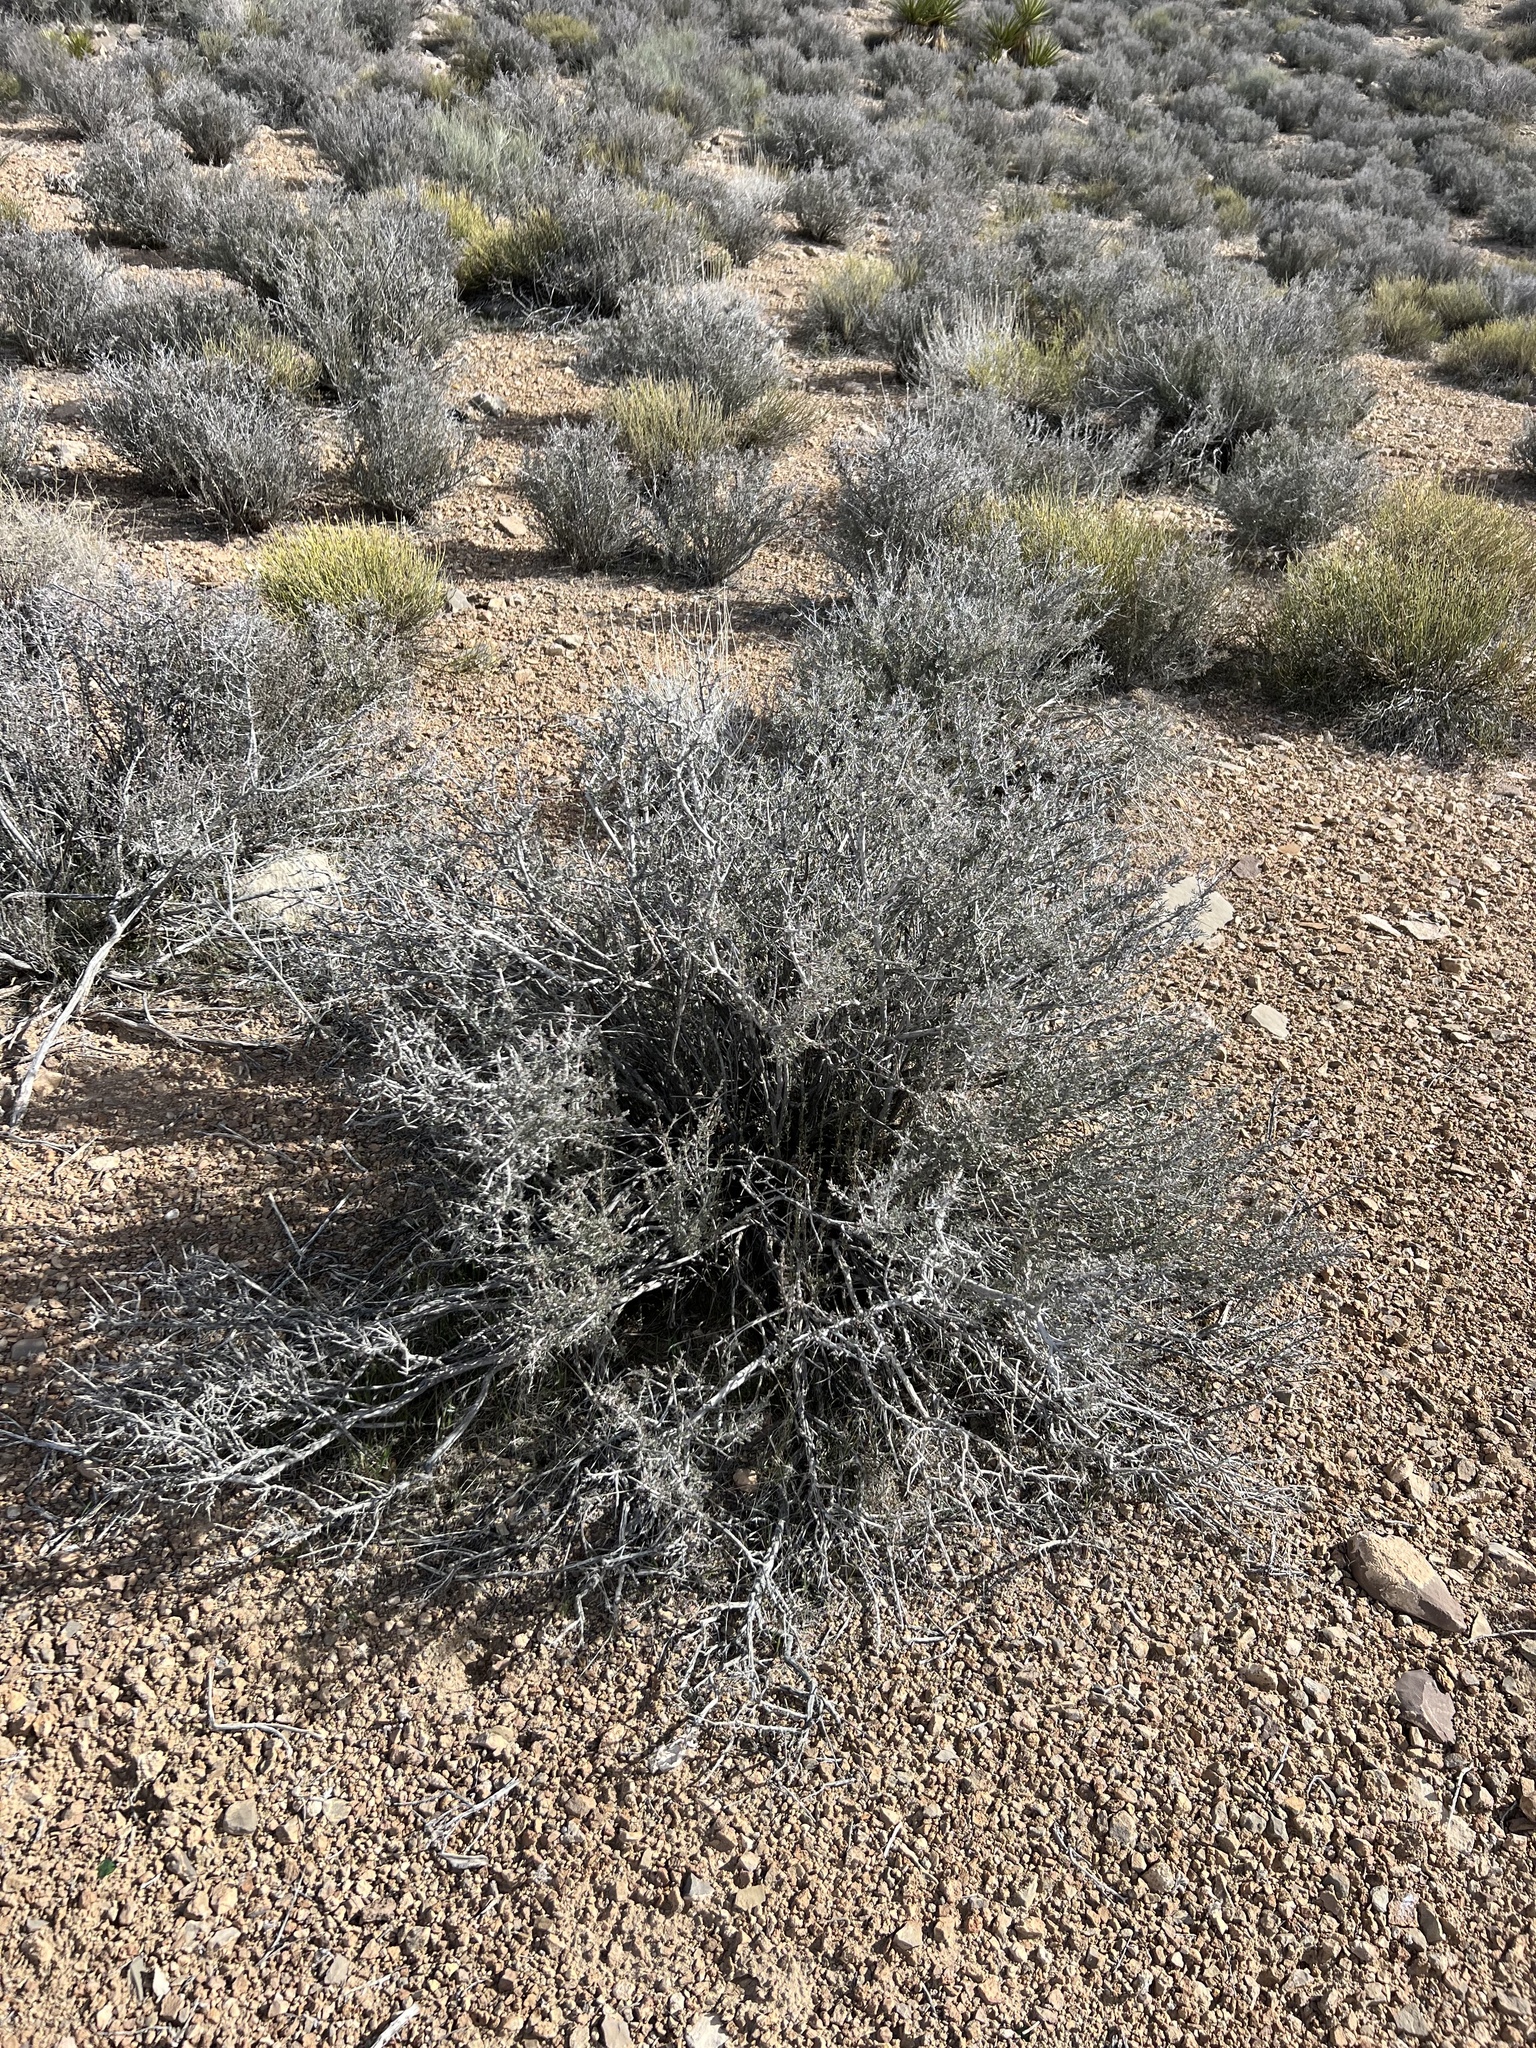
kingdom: Plantae
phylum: Tracheophyta
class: Magnoliopsida
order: Rosales
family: Rosaceae
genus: Coleogyne
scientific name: Coleogyne ramosissima
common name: Blackbrush
